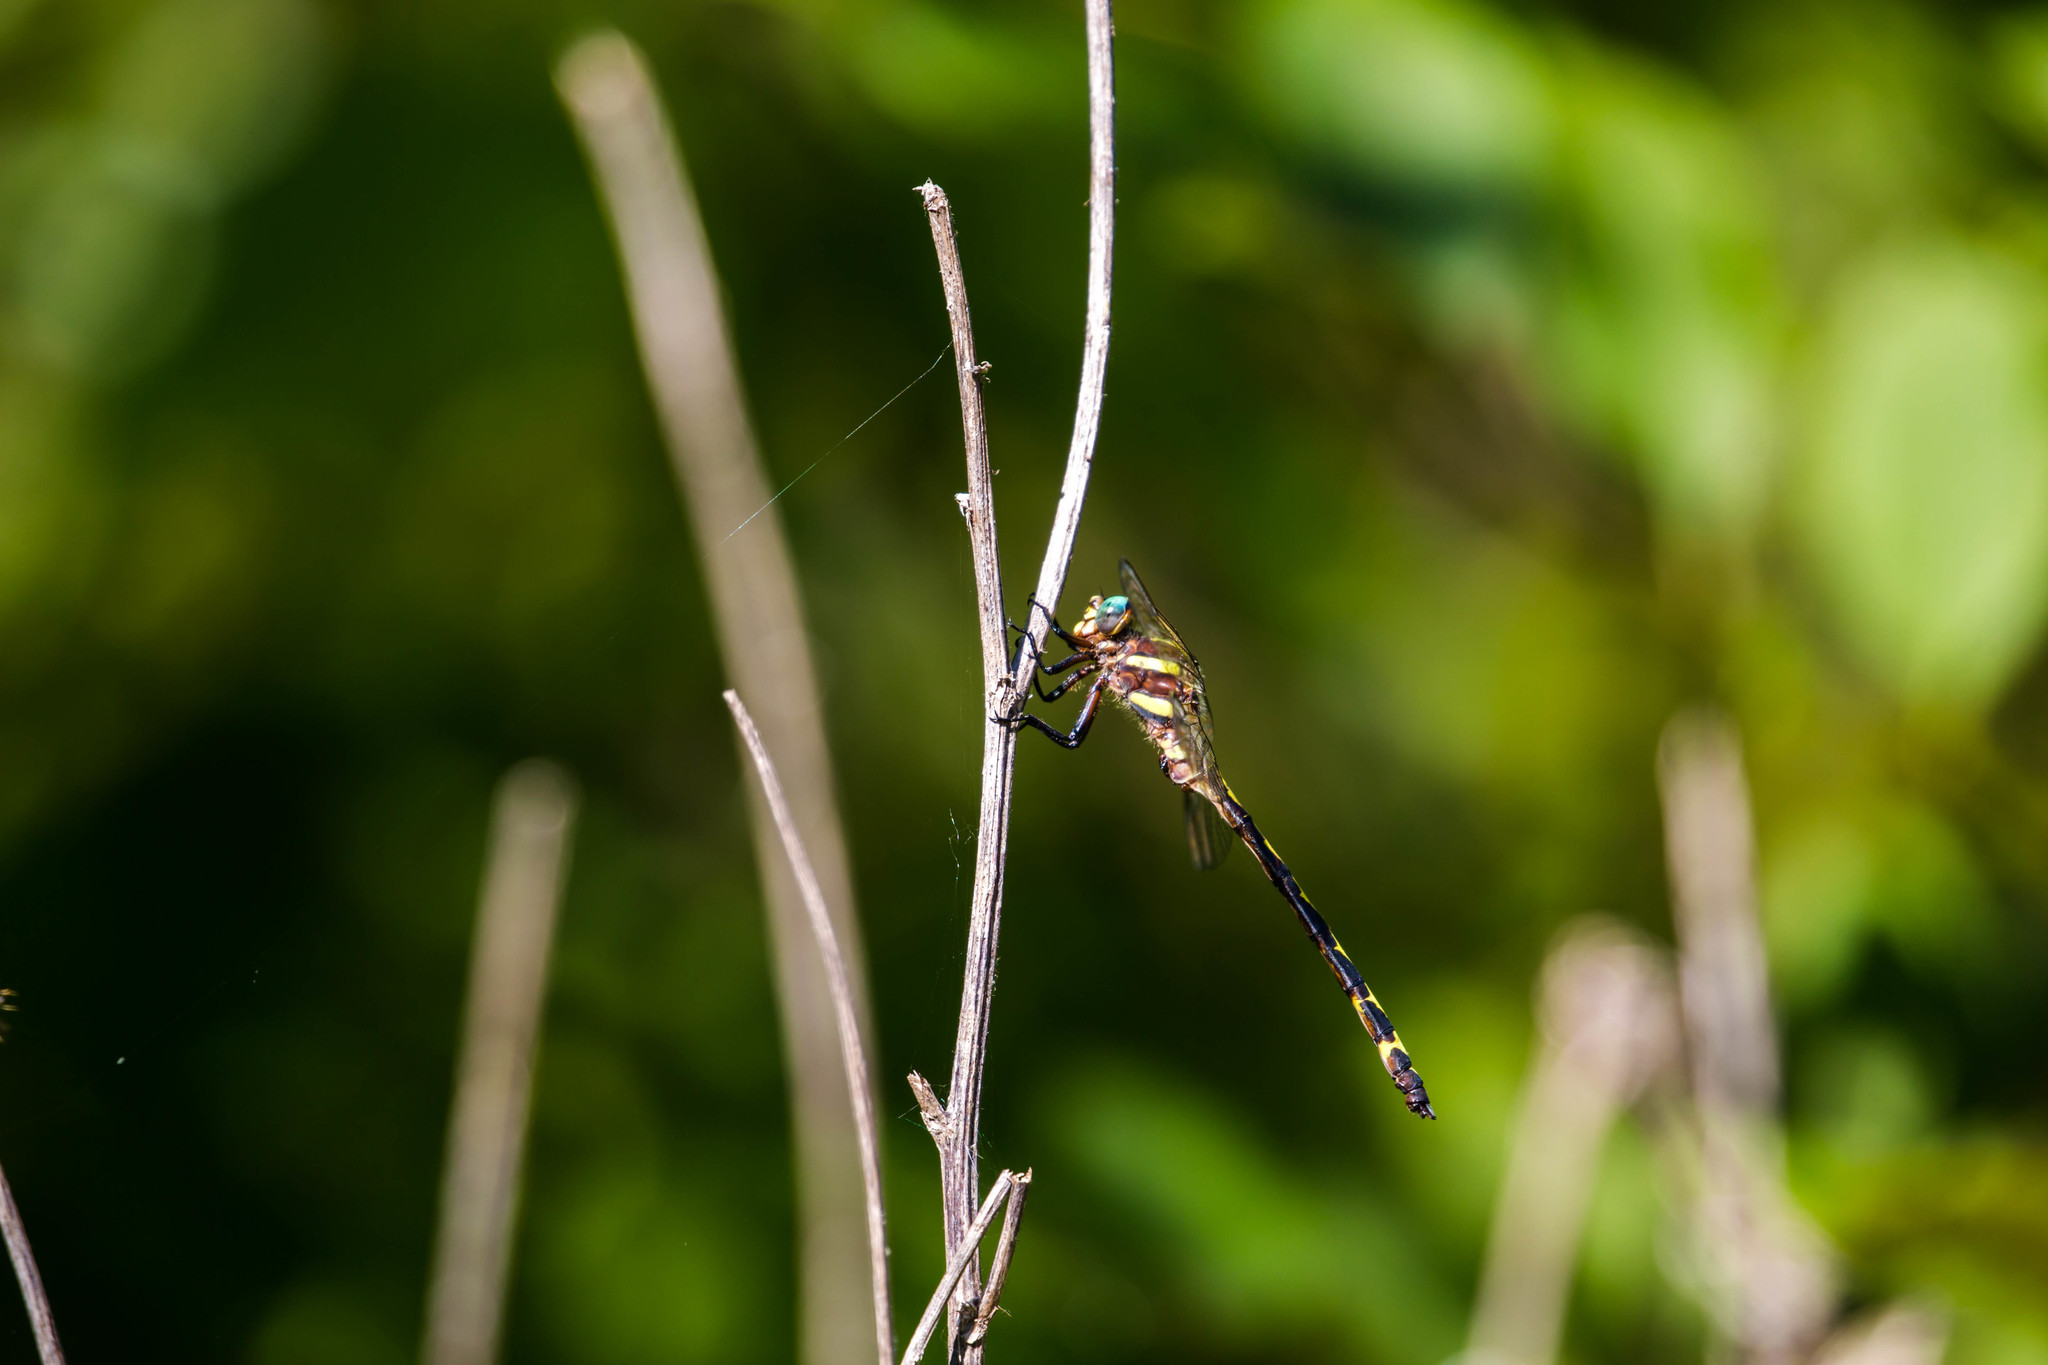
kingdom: Animalia
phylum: Arthropoda
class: Insecta
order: Odonata
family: Cordulegastridae
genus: Cordulegaster
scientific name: Cordulegaster obliqua
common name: Arrowhead spiketail
